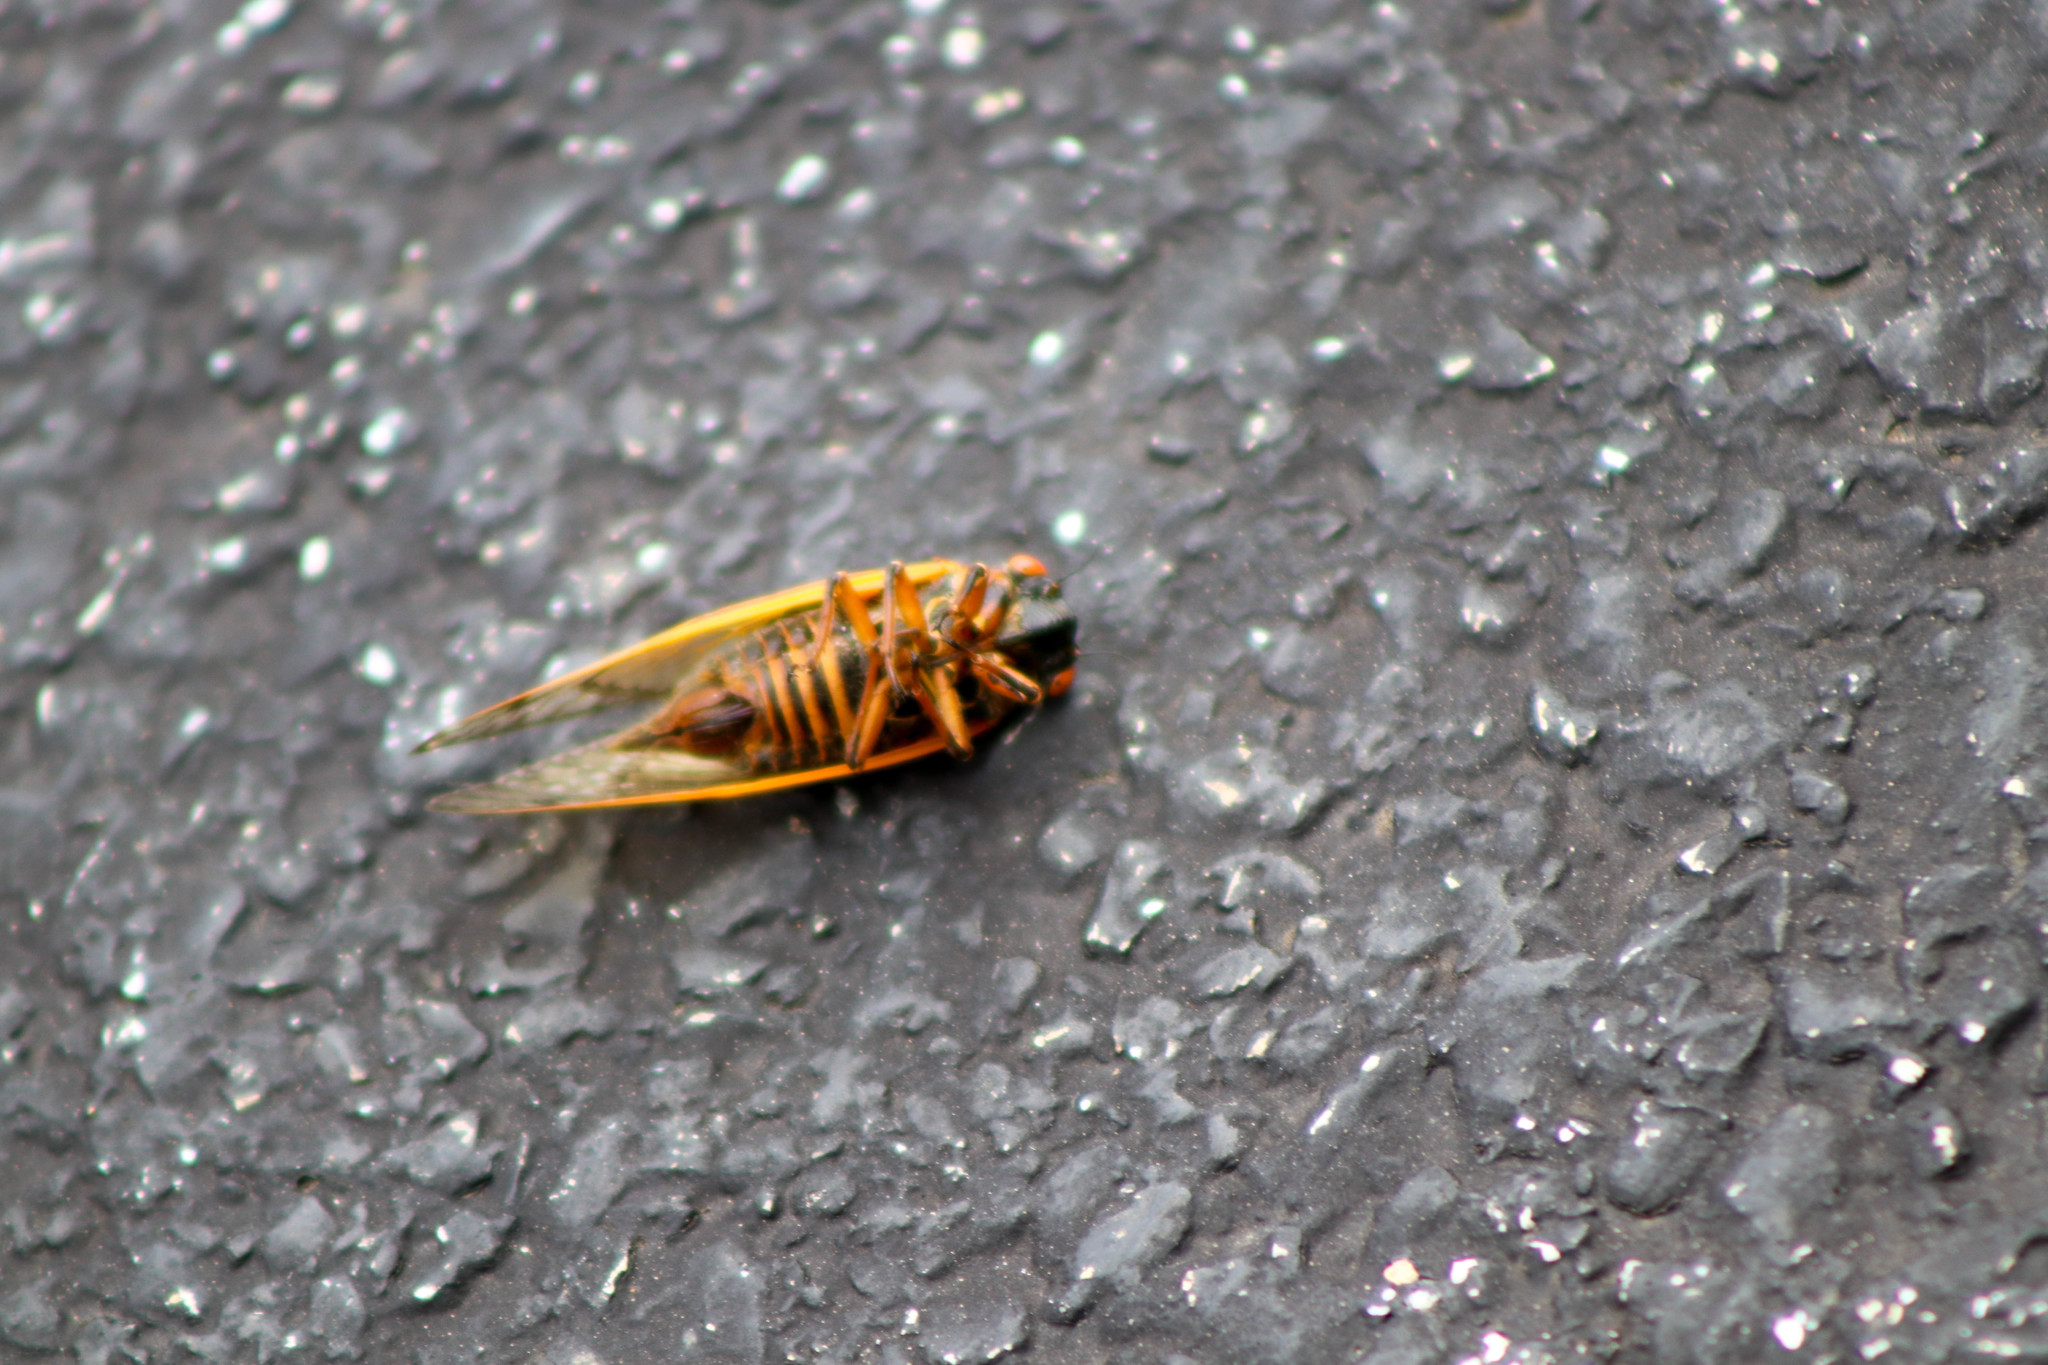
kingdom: Animalia
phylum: Arthropoda
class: Insecta
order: Hemiptera
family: Cicadidae
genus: Magicicada
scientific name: Magicicada septendecim
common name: Periodical cicada
